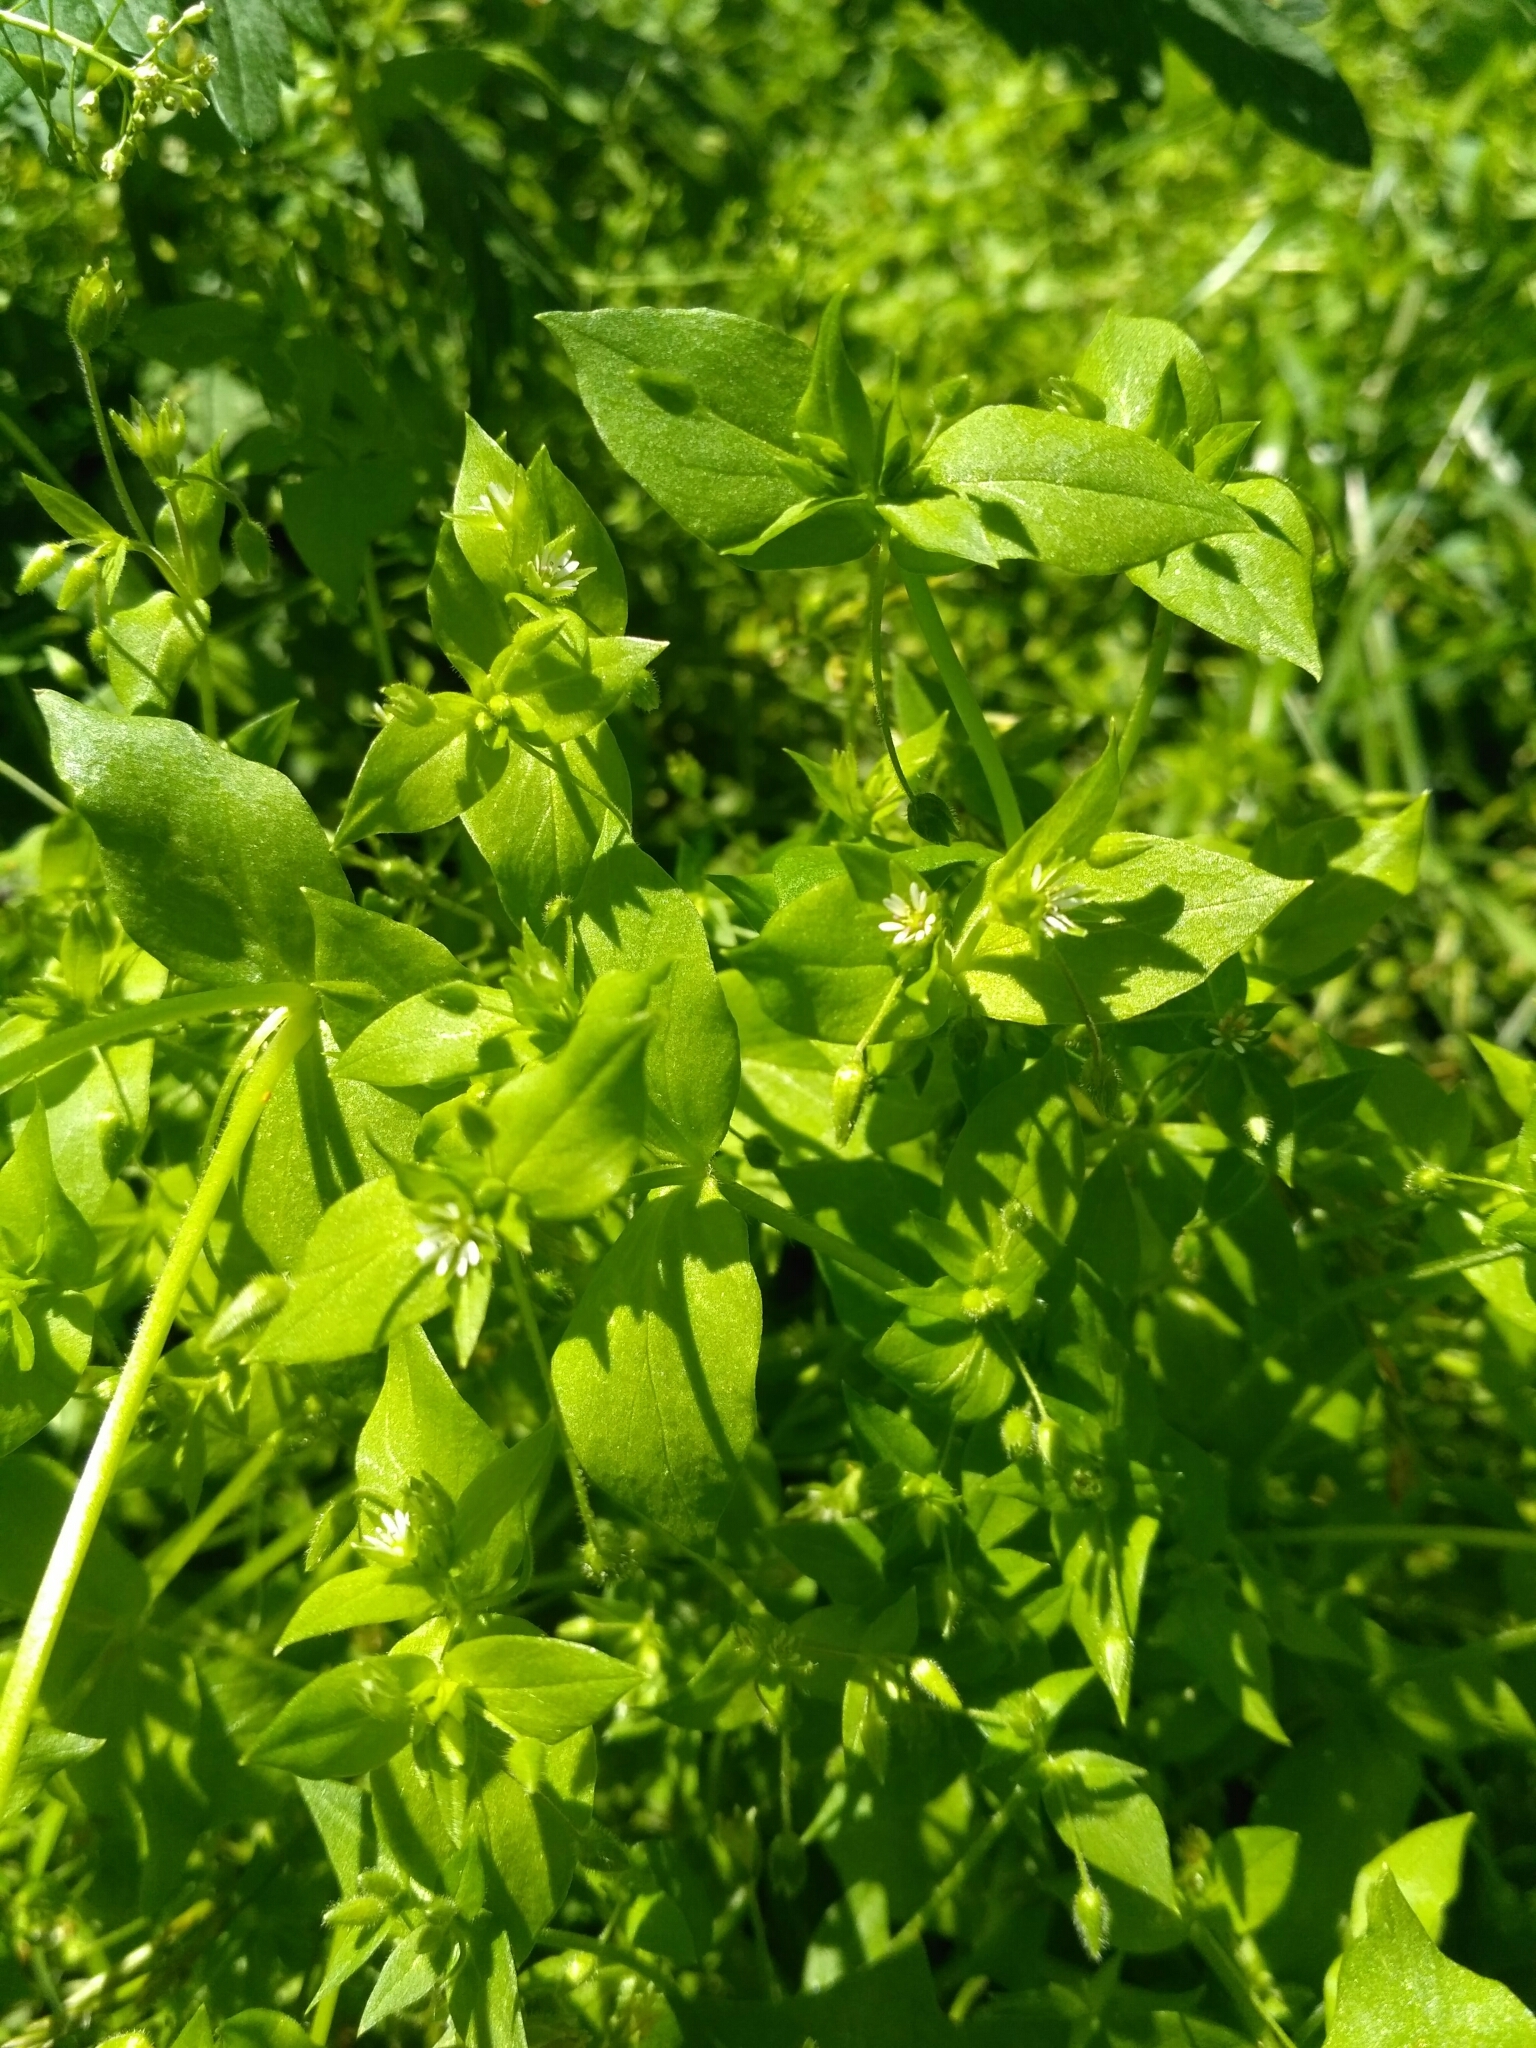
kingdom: Plantae
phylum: Tracheophyta
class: Magnoliopsida
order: Caryophyllales
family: Caryophyllaceae
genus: Stellaria
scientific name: Stellaria media
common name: Common chickweed
